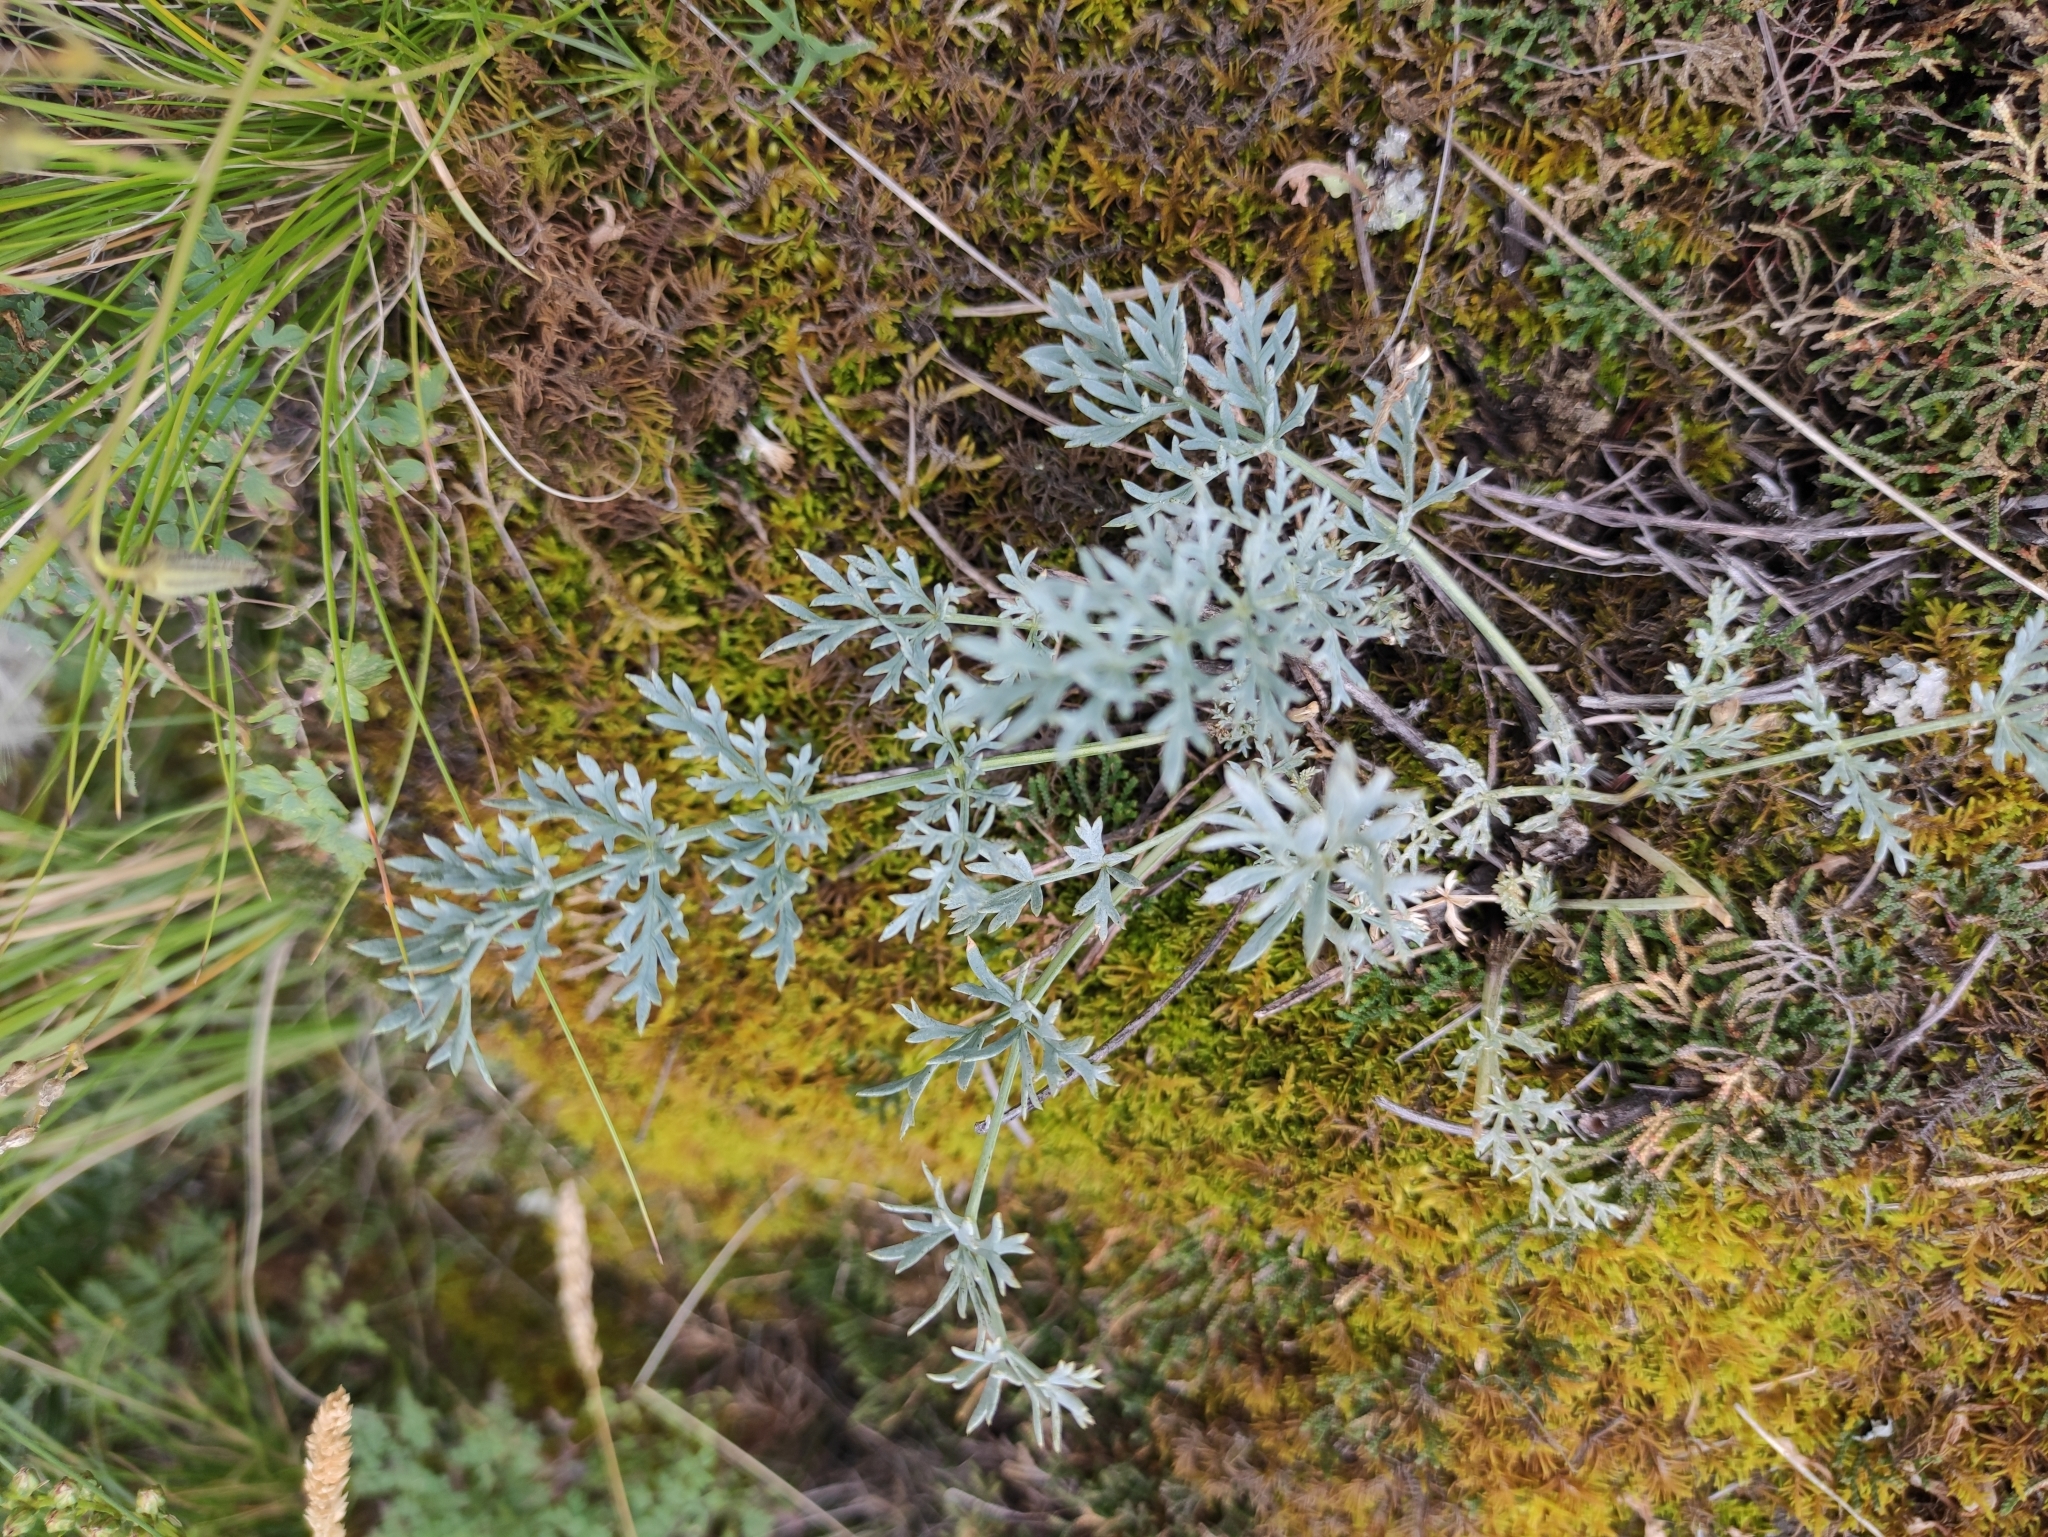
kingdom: Plantae
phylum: Tracheophyta
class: Magnoliopsida
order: Apiales
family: Apiaceae
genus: Phlojodicarpus
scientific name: Phlojodicarpus sibiricus
